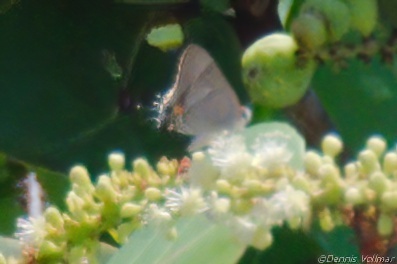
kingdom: Animalia
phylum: Arthropoda
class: Insecta
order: Lepidoptera
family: Lycaenidae
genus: Thecla
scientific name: Thecla martialis
